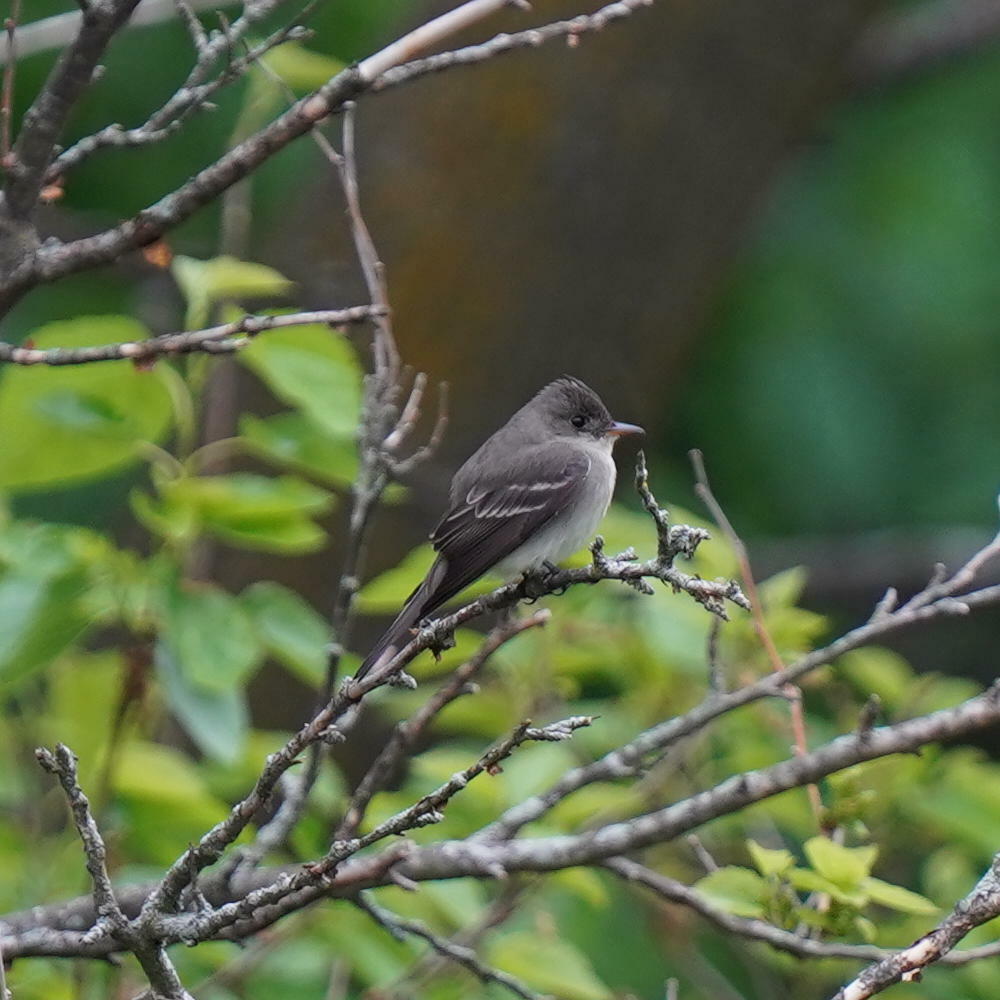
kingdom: Animalia
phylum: Chordata
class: Aves
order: Passeriformes
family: Tyrannidae
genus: Empidonax
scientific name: Empidonax minimus
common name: Least flycatcher
